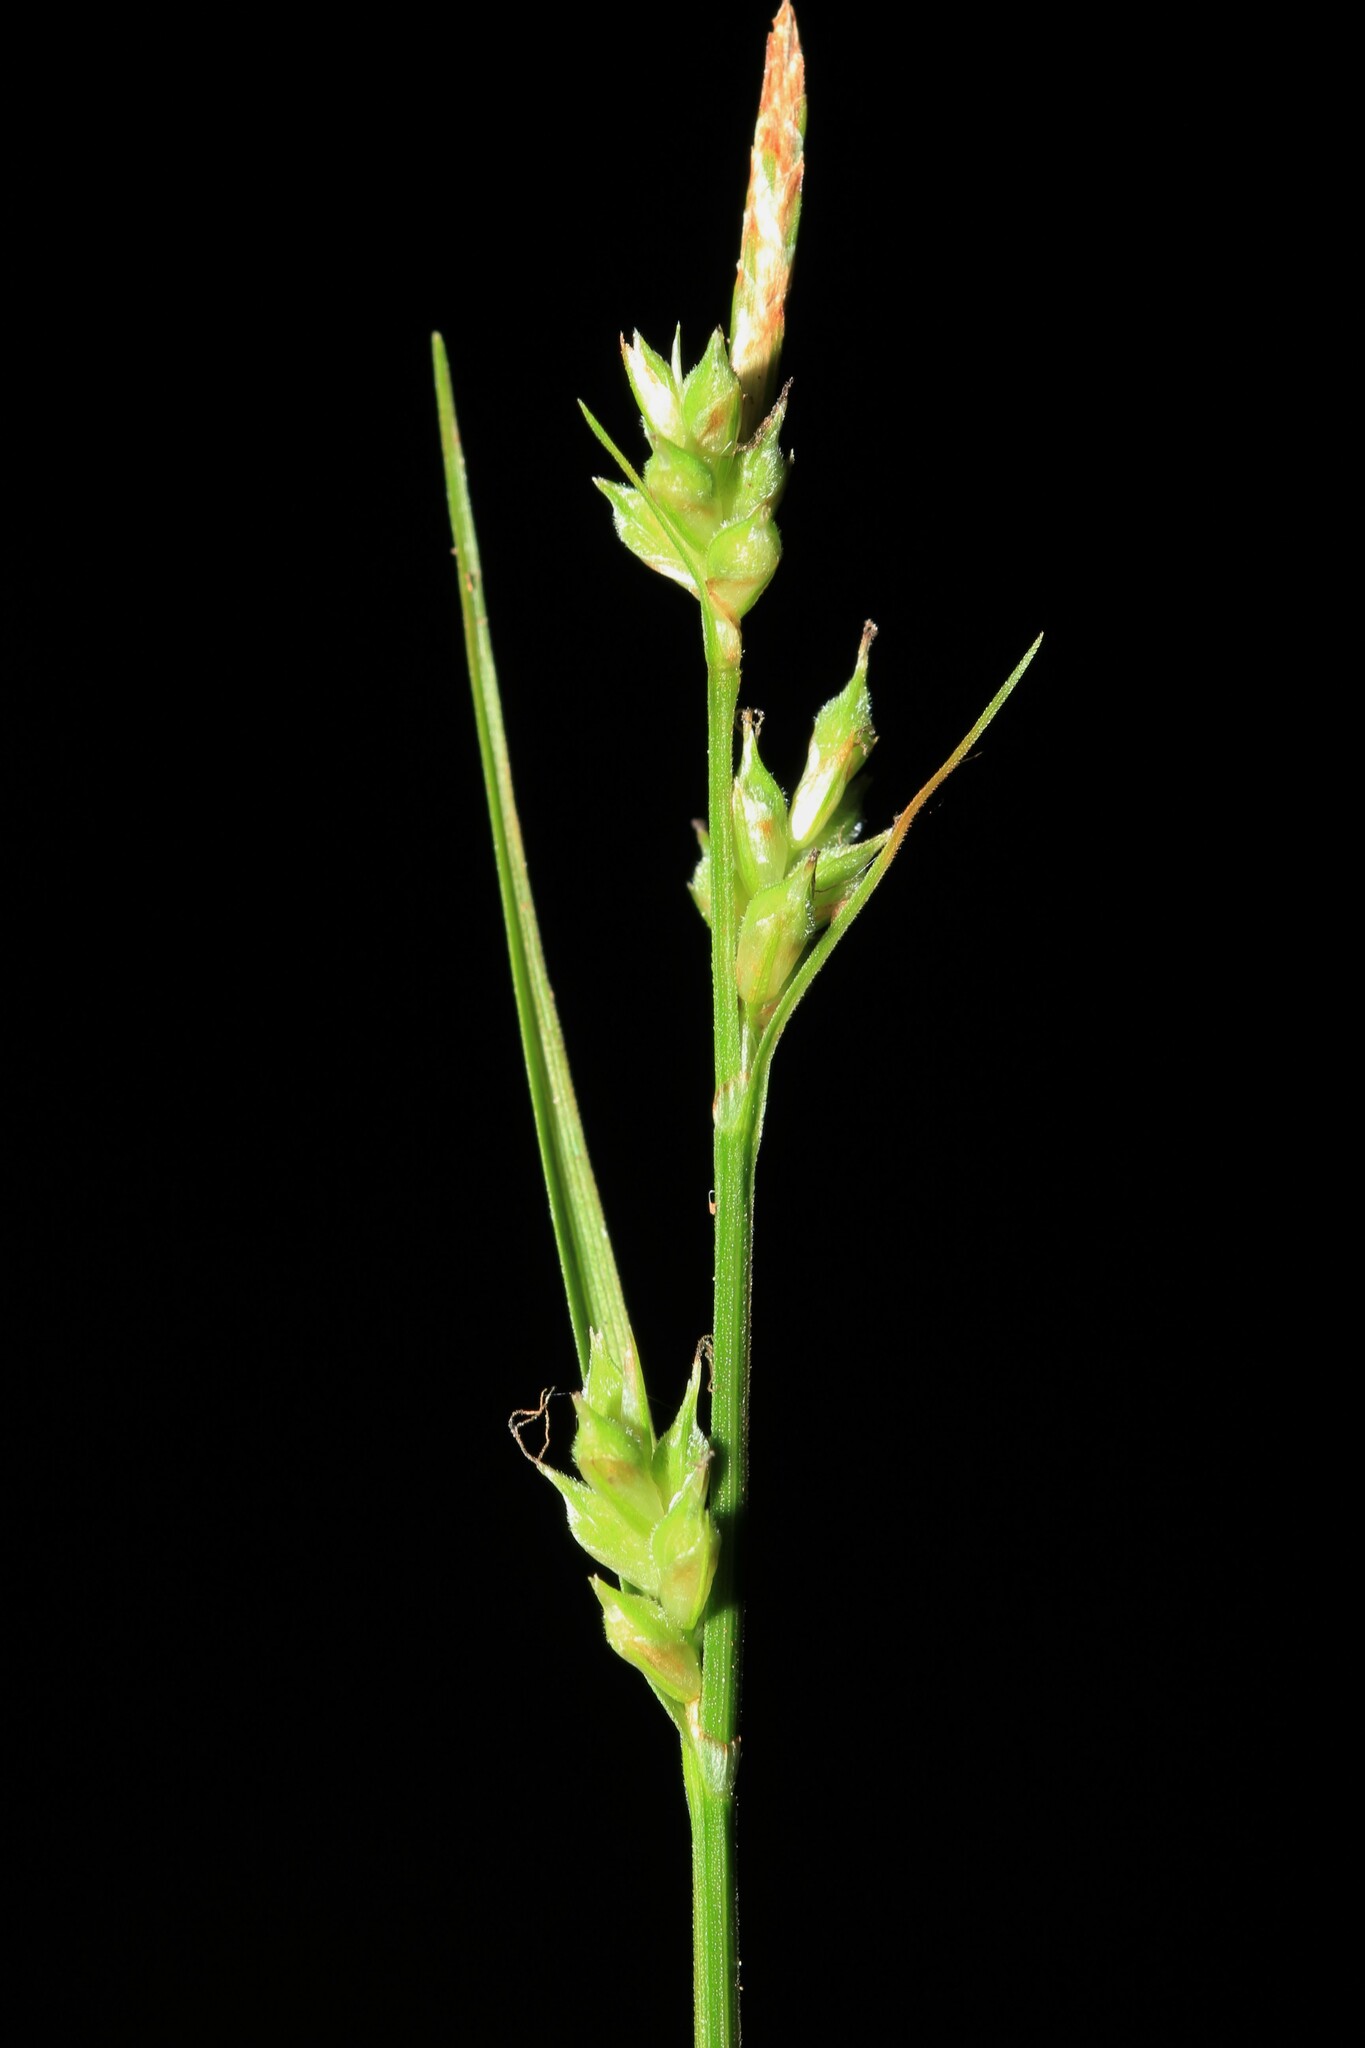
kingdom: Plantae
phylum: Tracheophyta
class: Liliopsida
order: Poales
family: Cyperaceae
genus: Carex
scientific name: Carex communis
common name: Colonial oak sedge
